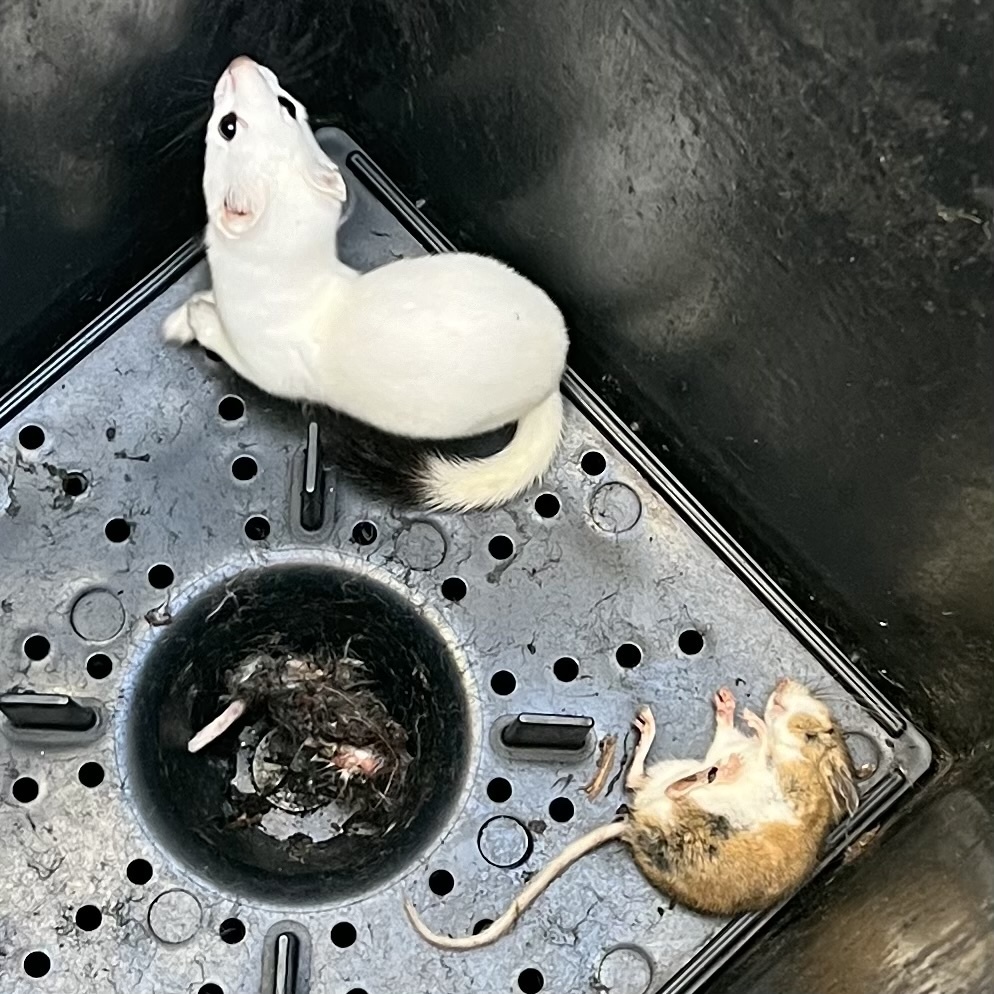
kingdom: Animalia
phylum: Chordata
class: Mammalia
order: Carnivora
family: Mustelidae
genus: Mustela
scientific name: Mustela erminea
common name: Stoat
